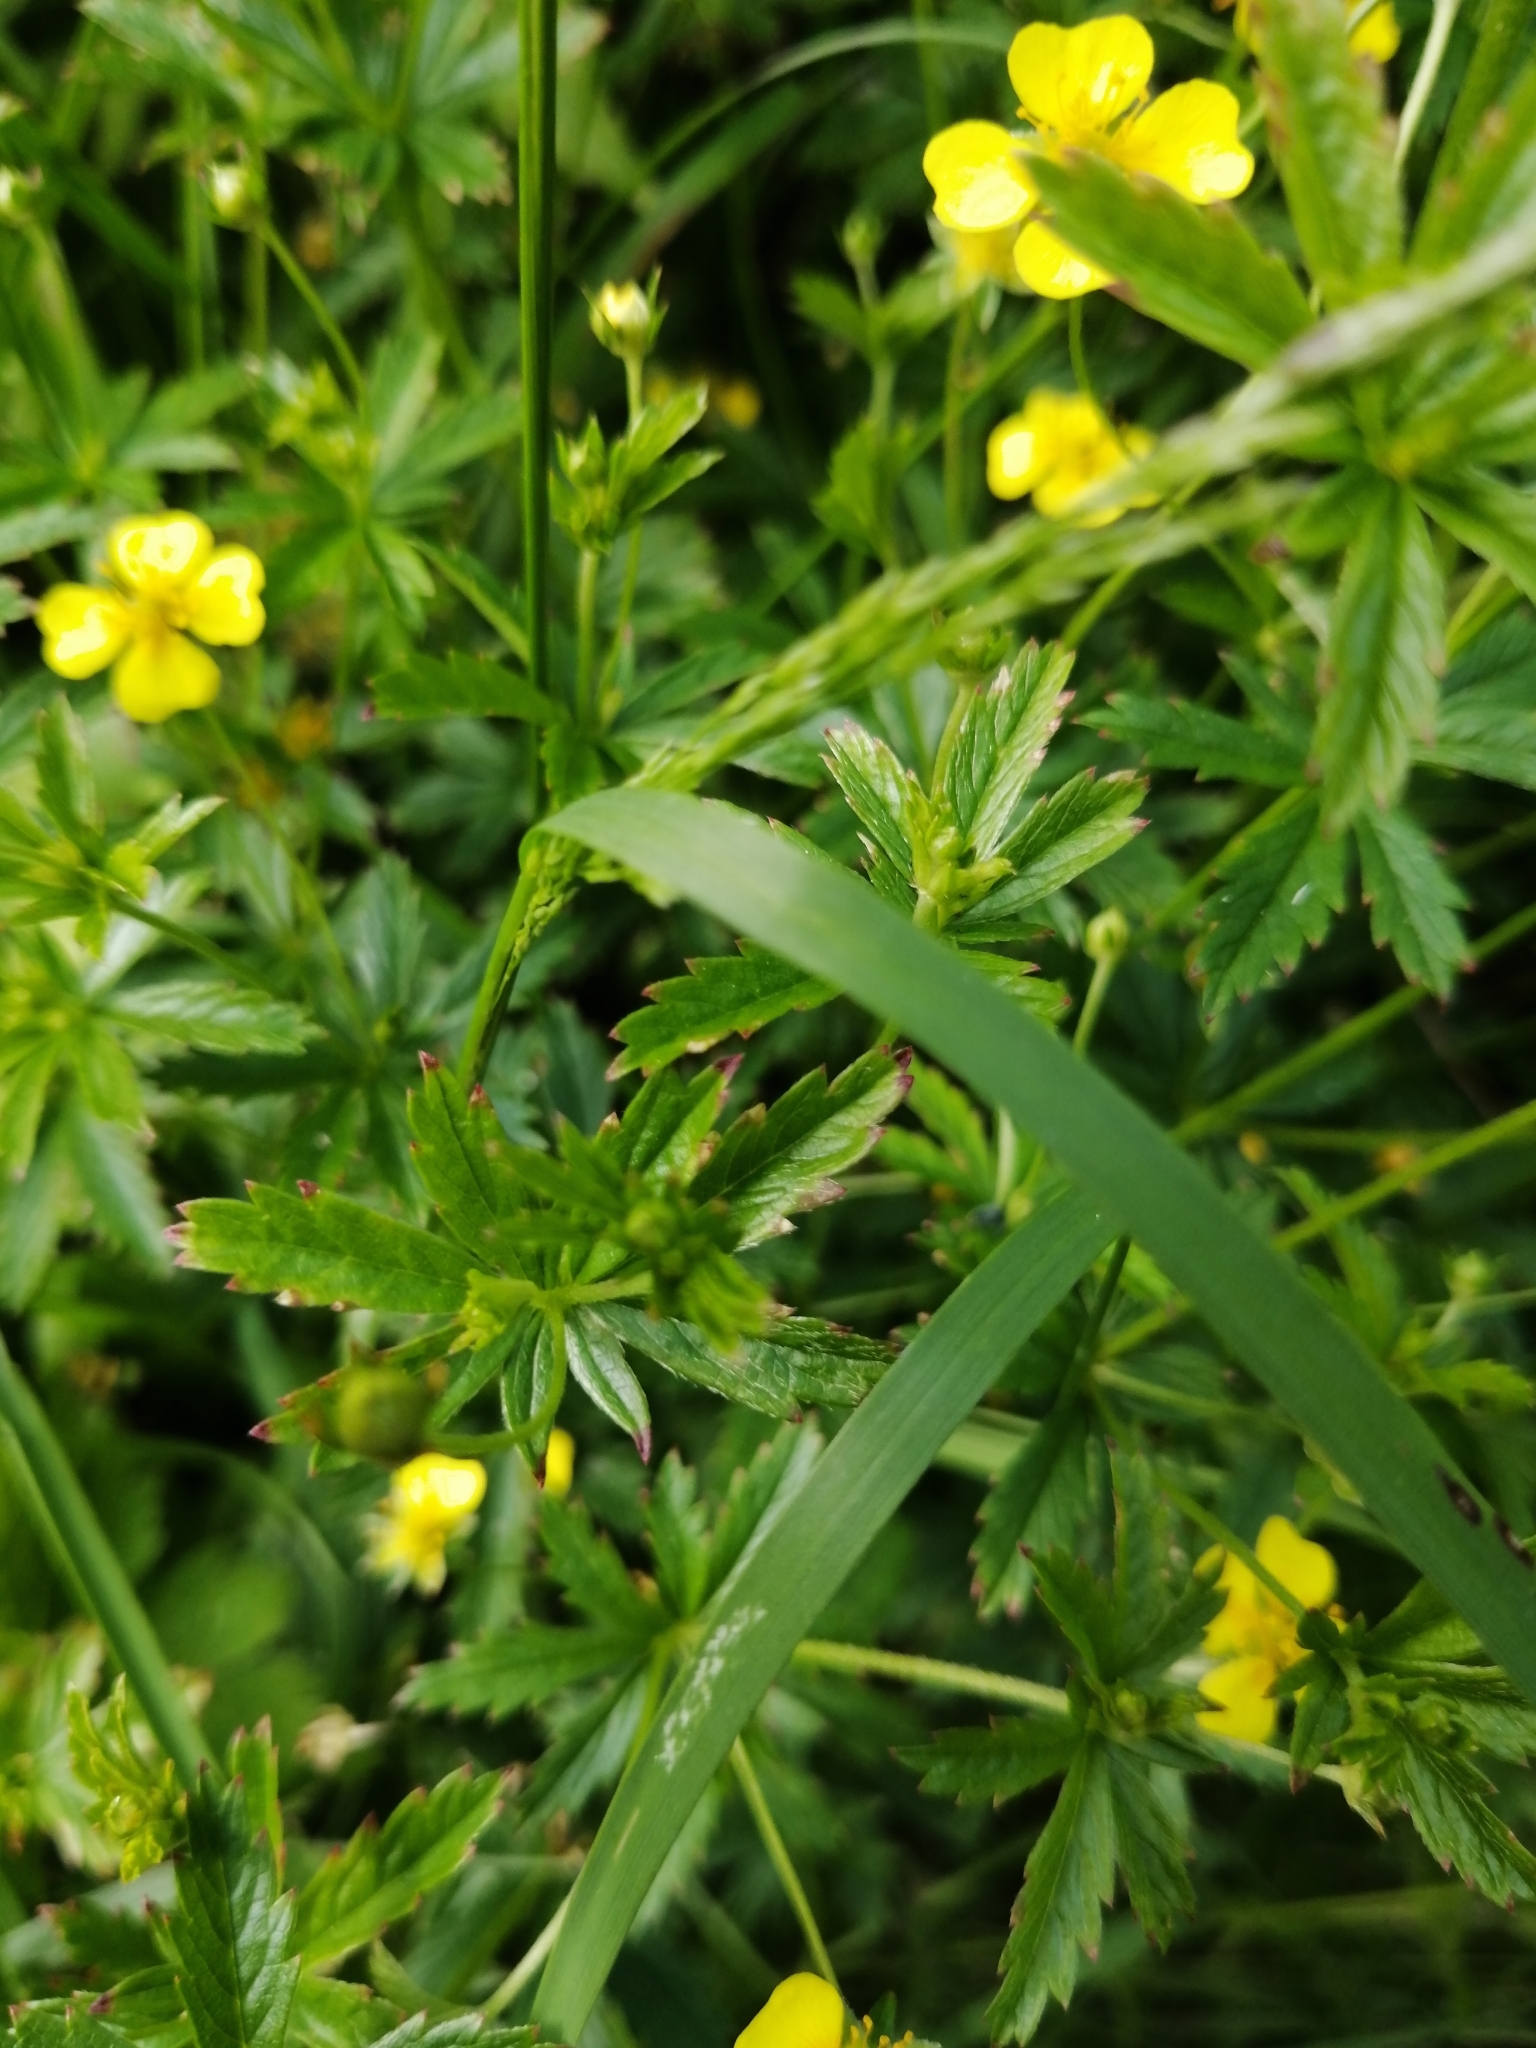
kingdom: Plantae
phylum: Tracheophyta
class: Magnoliopsida
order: Rosales
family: Rosaceae
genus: Potentilla
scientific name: Potentilla erecta
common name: Tormentil
